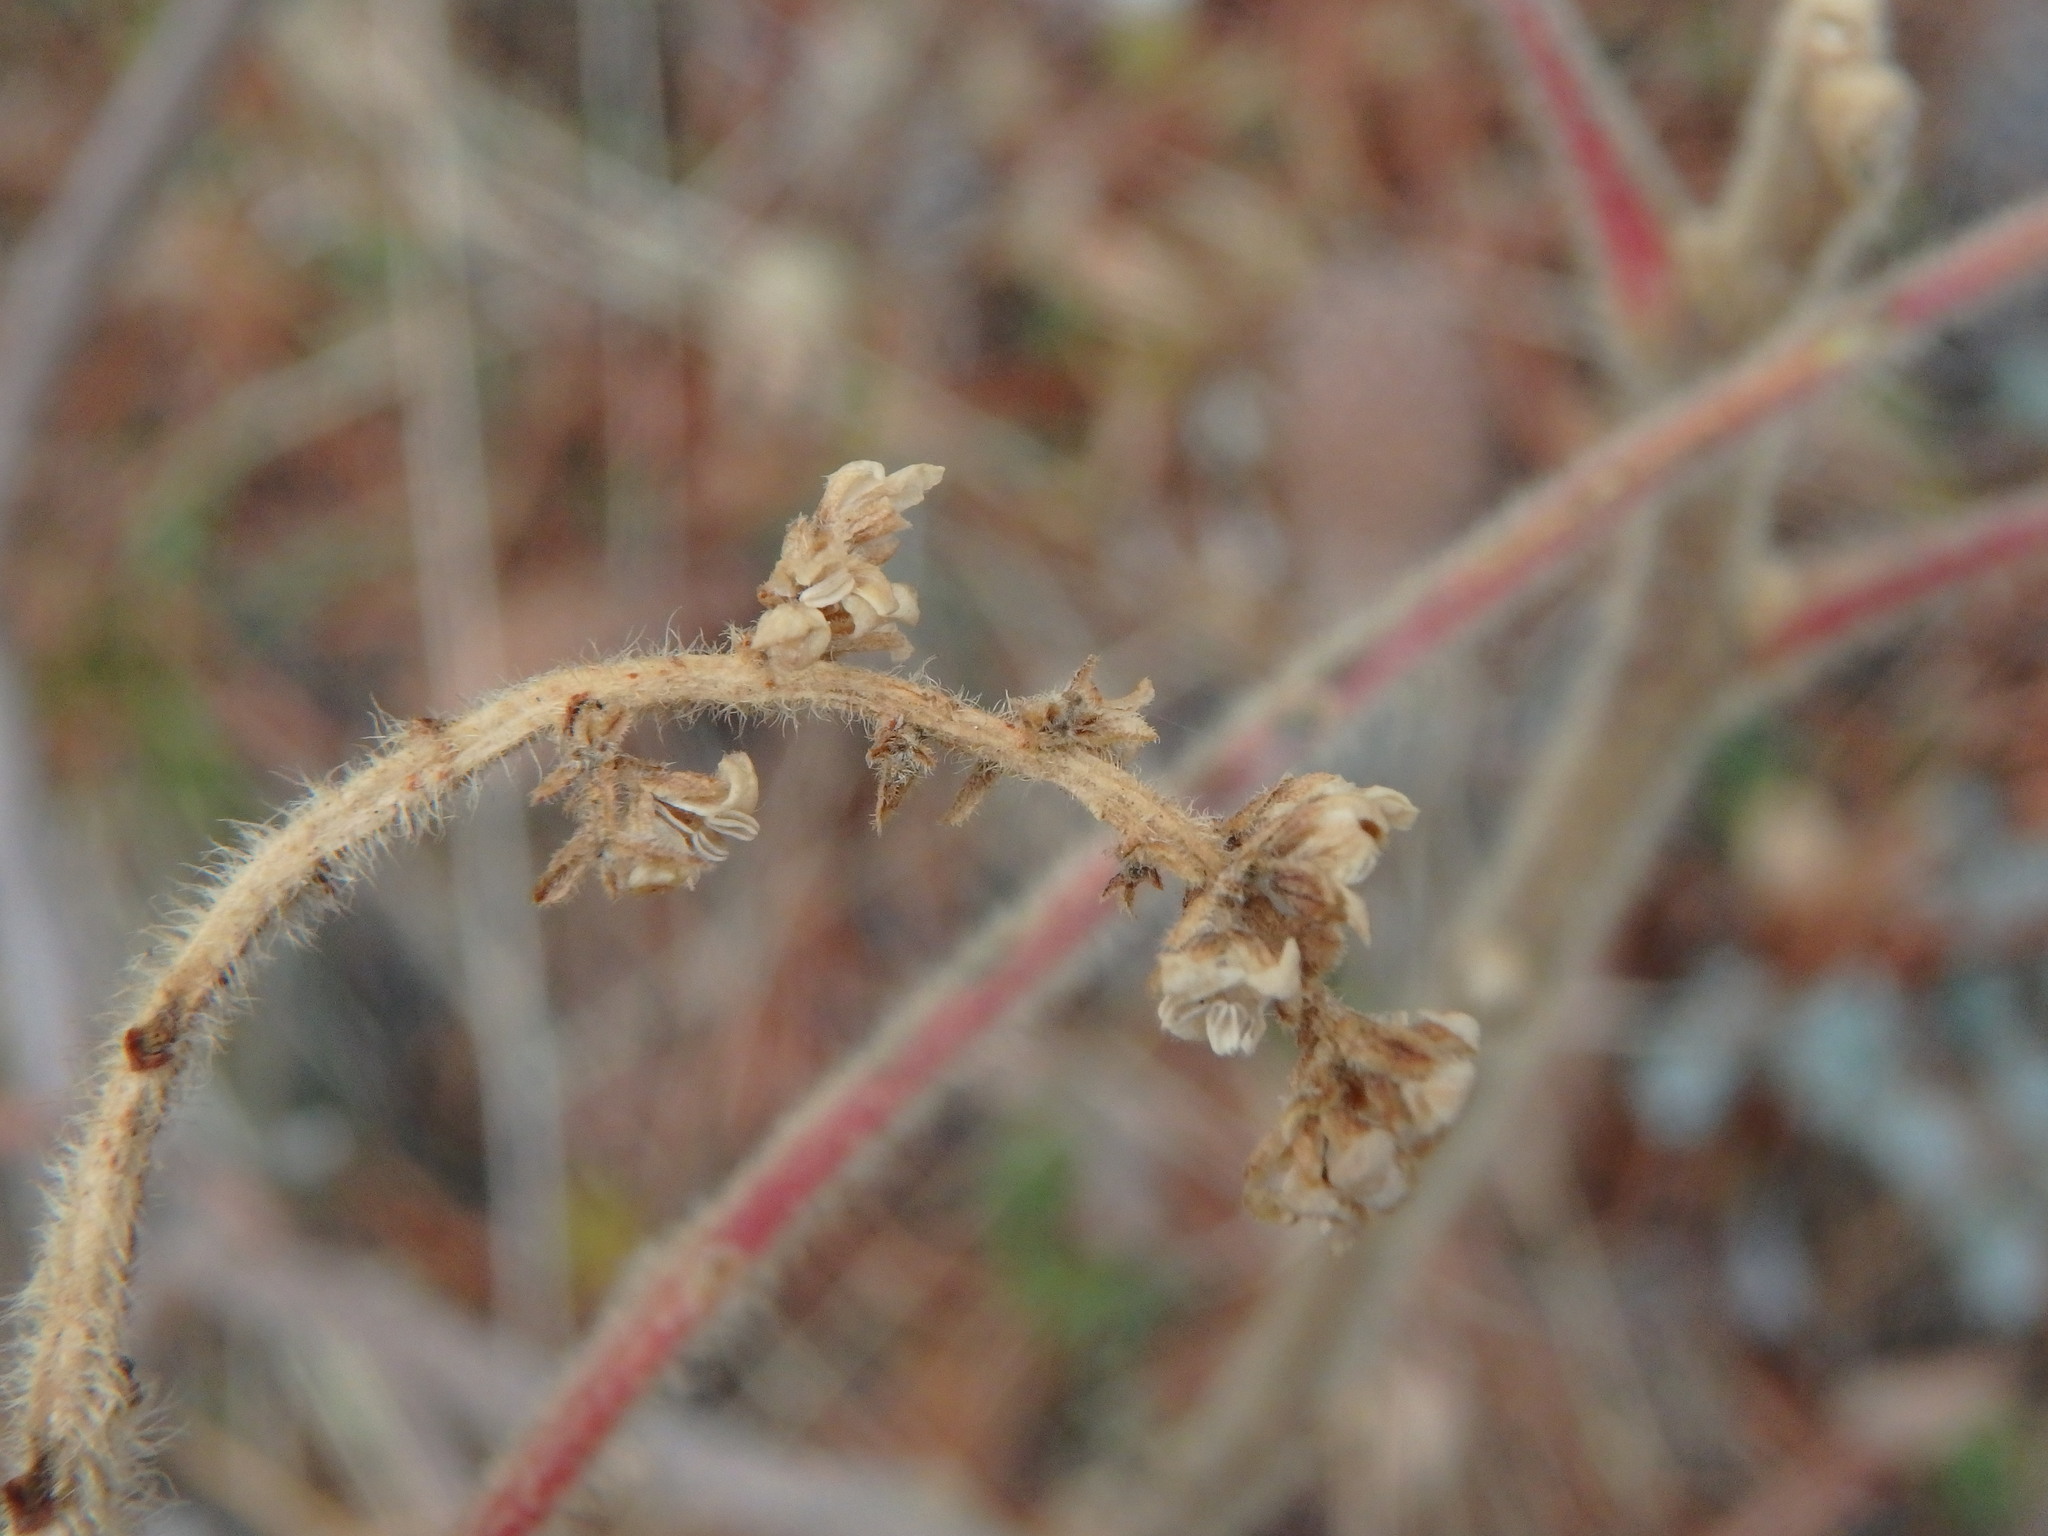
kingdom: Plantae
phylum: Tracheophyta
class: Magnoliopsida
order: Sapindales
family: Anacardiaceae
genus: Rhus
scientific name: Rhus coriaria
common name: Tanner's sumach
